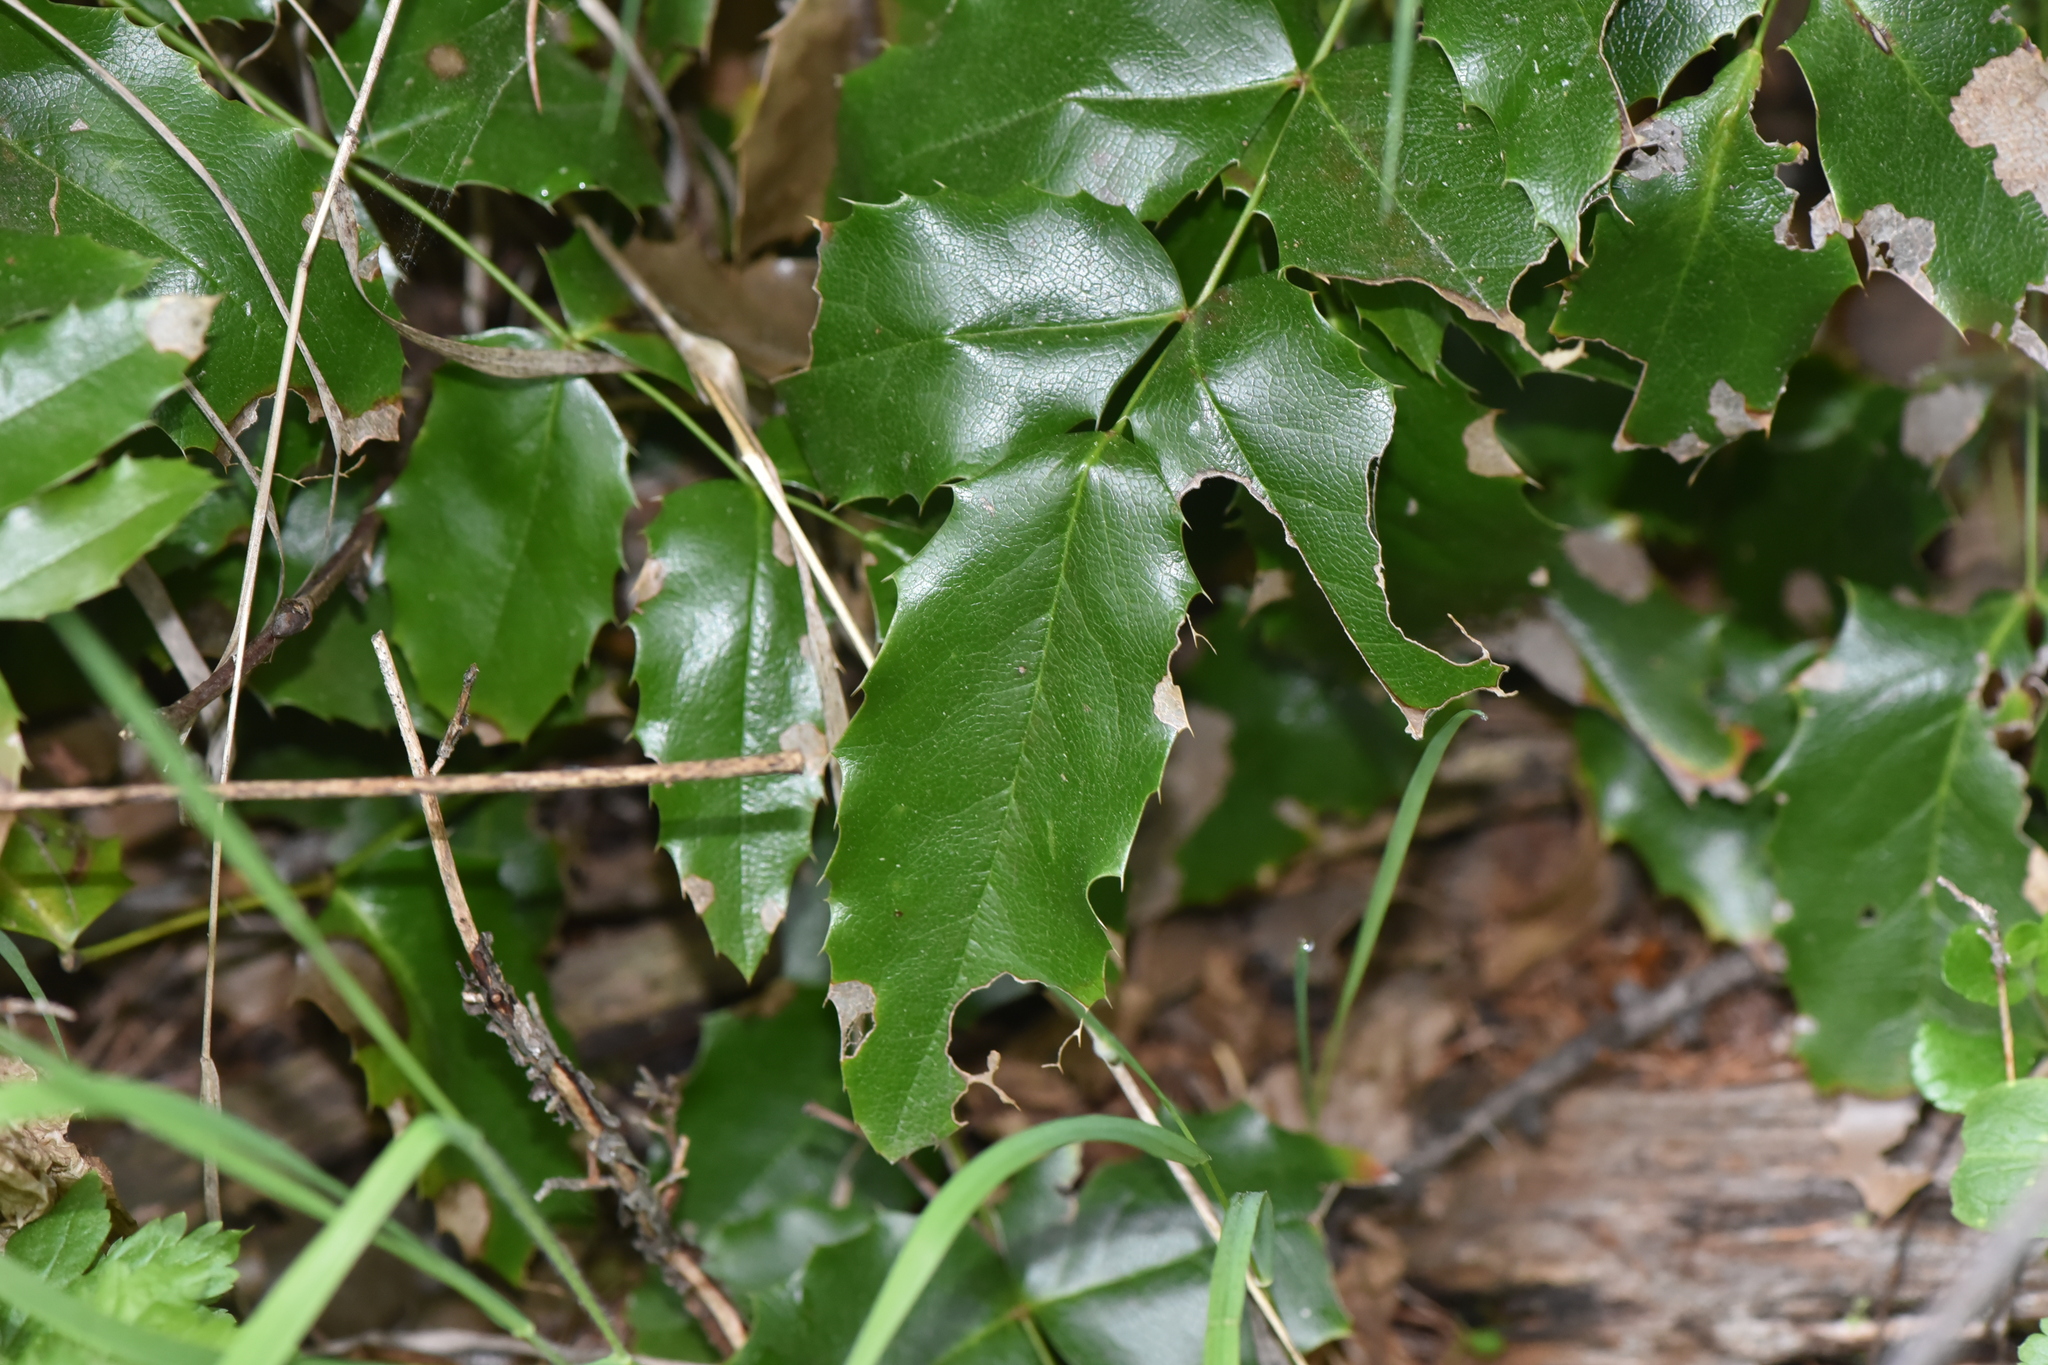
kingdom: Plantae
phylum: Tracheophyta
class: Magnoliopsida
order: Ranunculales
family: Berberidaceae
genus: Mahonia
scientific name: Mahonia aquifolium
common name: Oregon-grape
